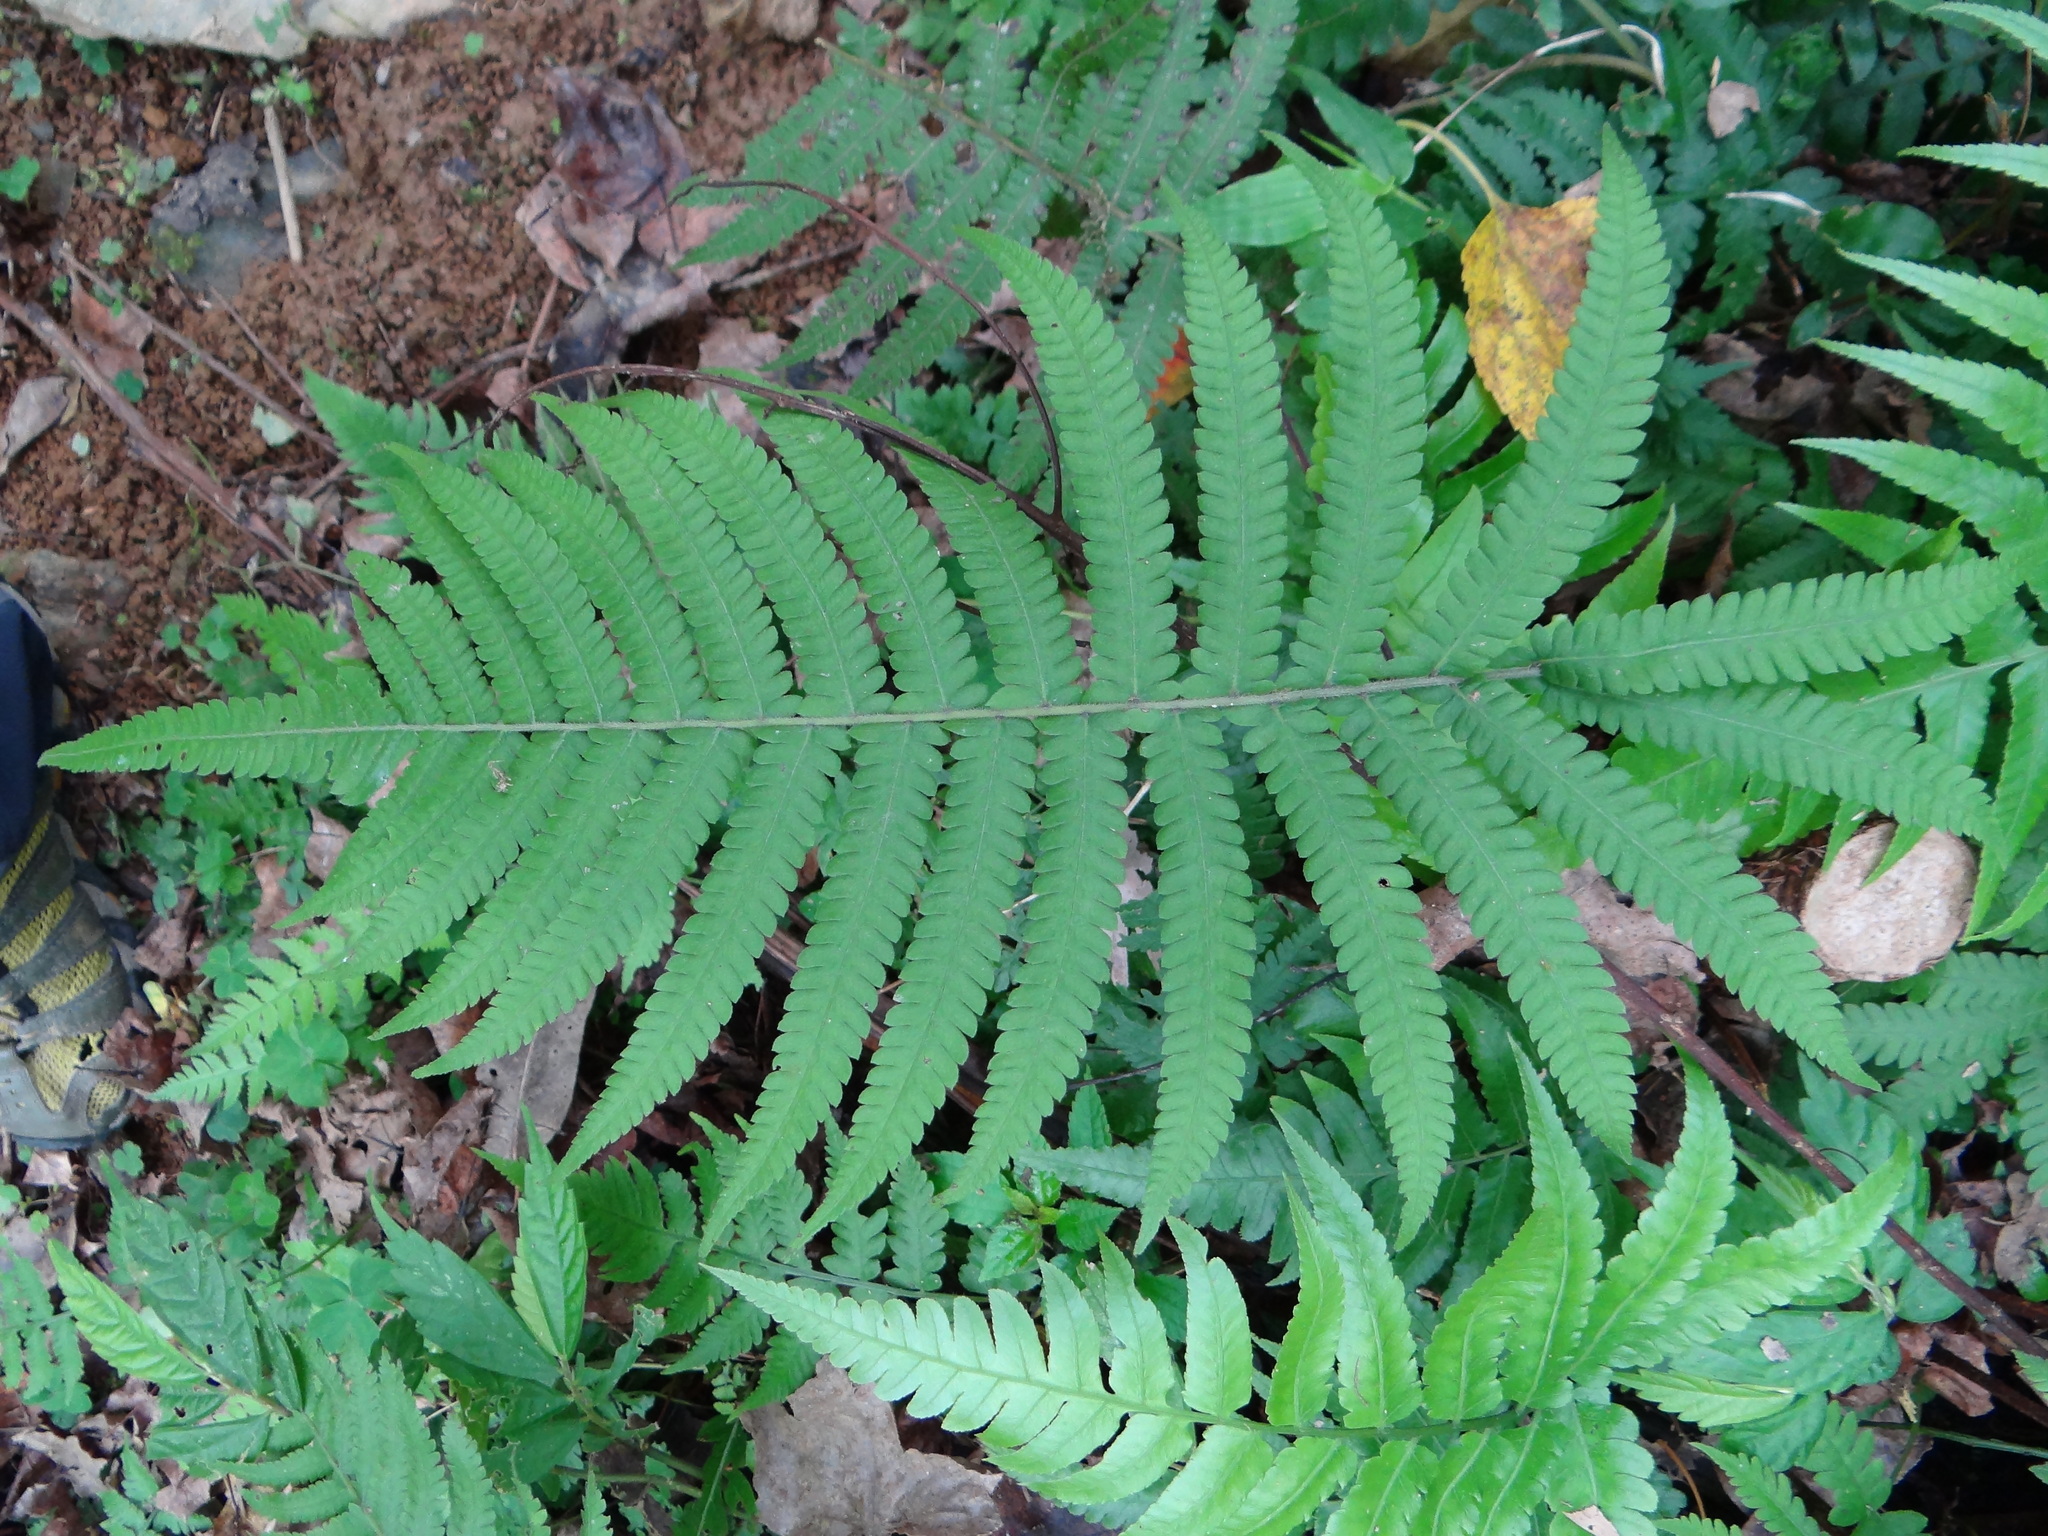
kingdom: Plantae
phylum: Tracheophyta
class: Polypodiopsida
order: Polypodiales
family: Thelypteridaceae
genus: Christella
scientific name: Christella parasitica
